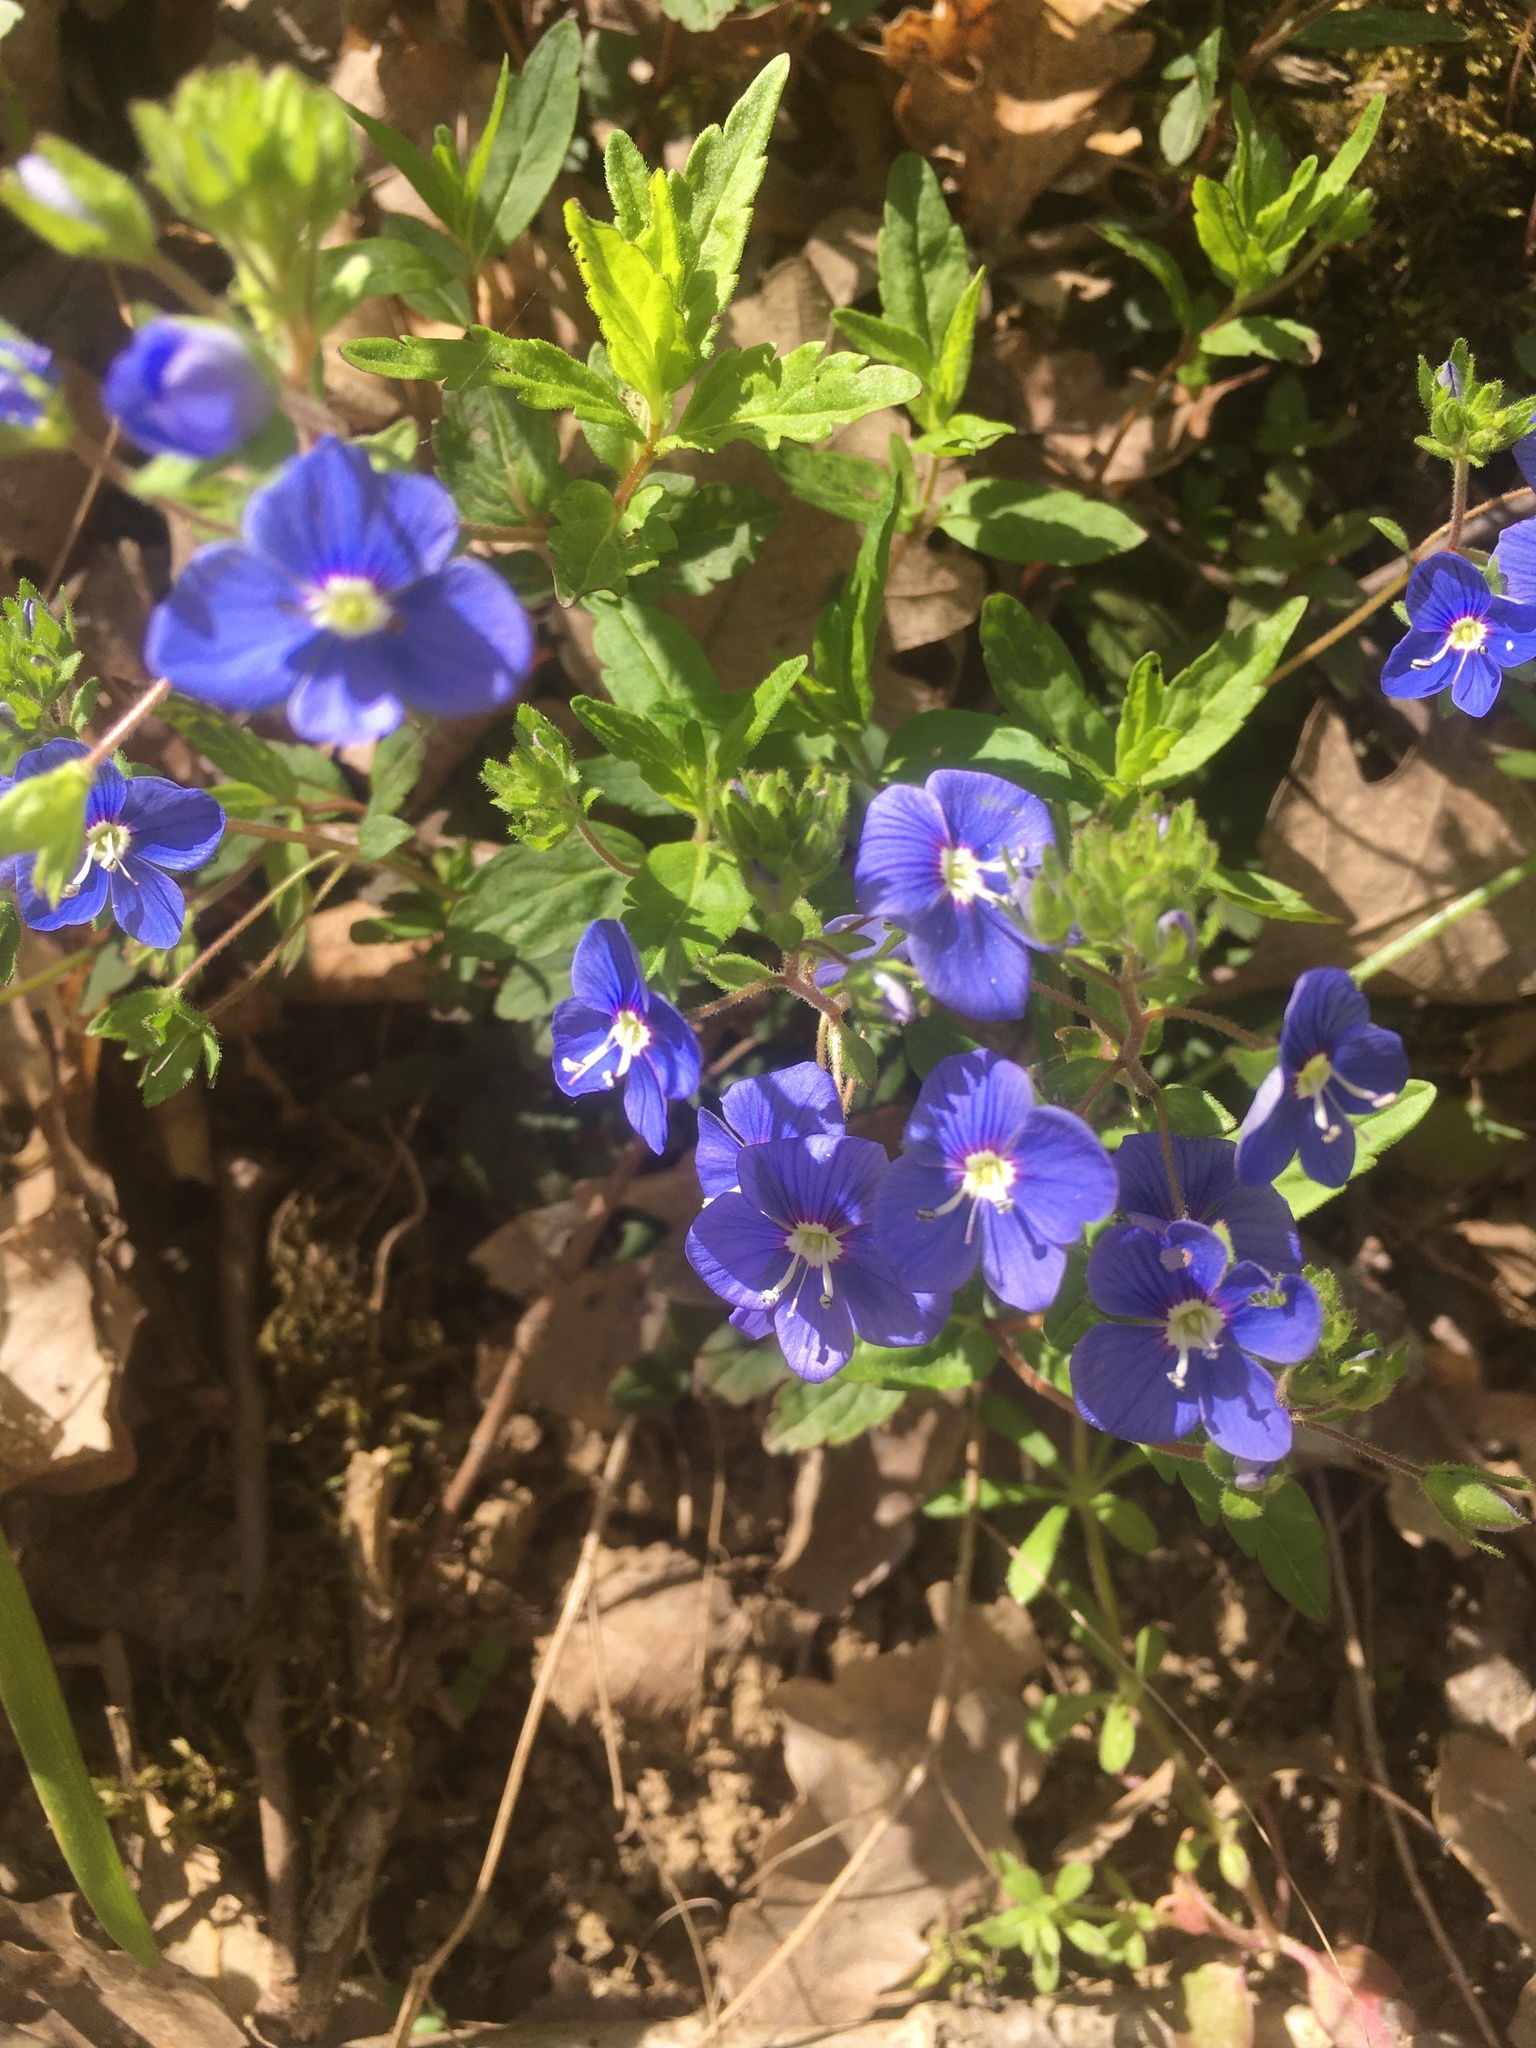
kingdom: Plantae
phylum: Tracheophyta
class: Magnoliopsida
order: Lamiales
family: Plantaginaceae
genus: Veronica
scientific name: Veronica
